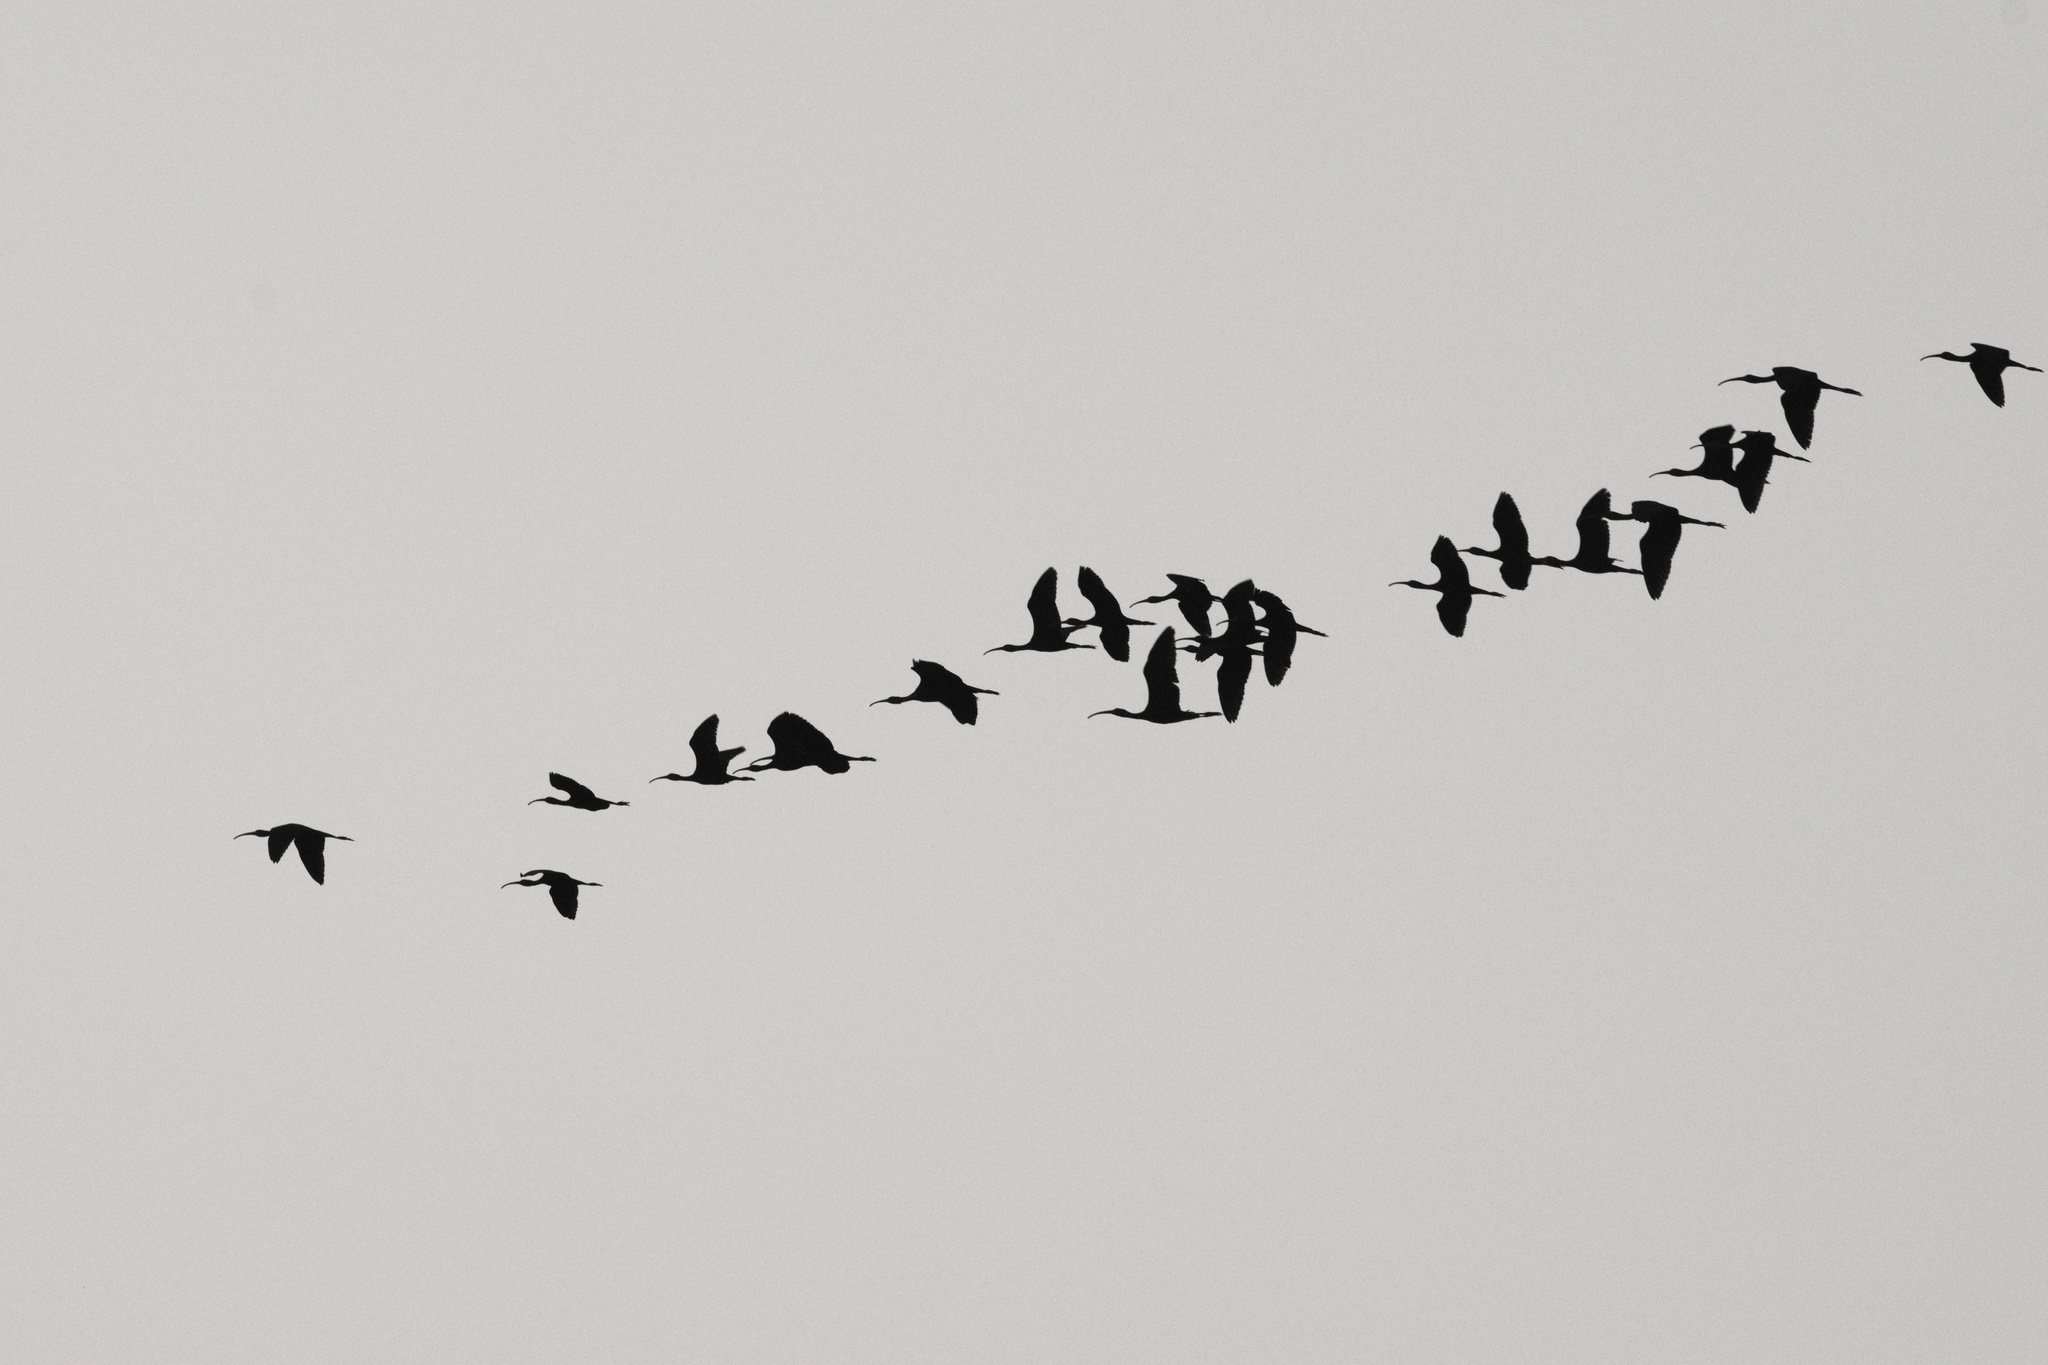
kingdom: Animalia
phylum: Chordata
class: Aves
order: Pelecaniformes
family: Threskiornithidae
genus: Plegadis
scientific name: Plegadis falcinellus
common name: Glossy ibis
